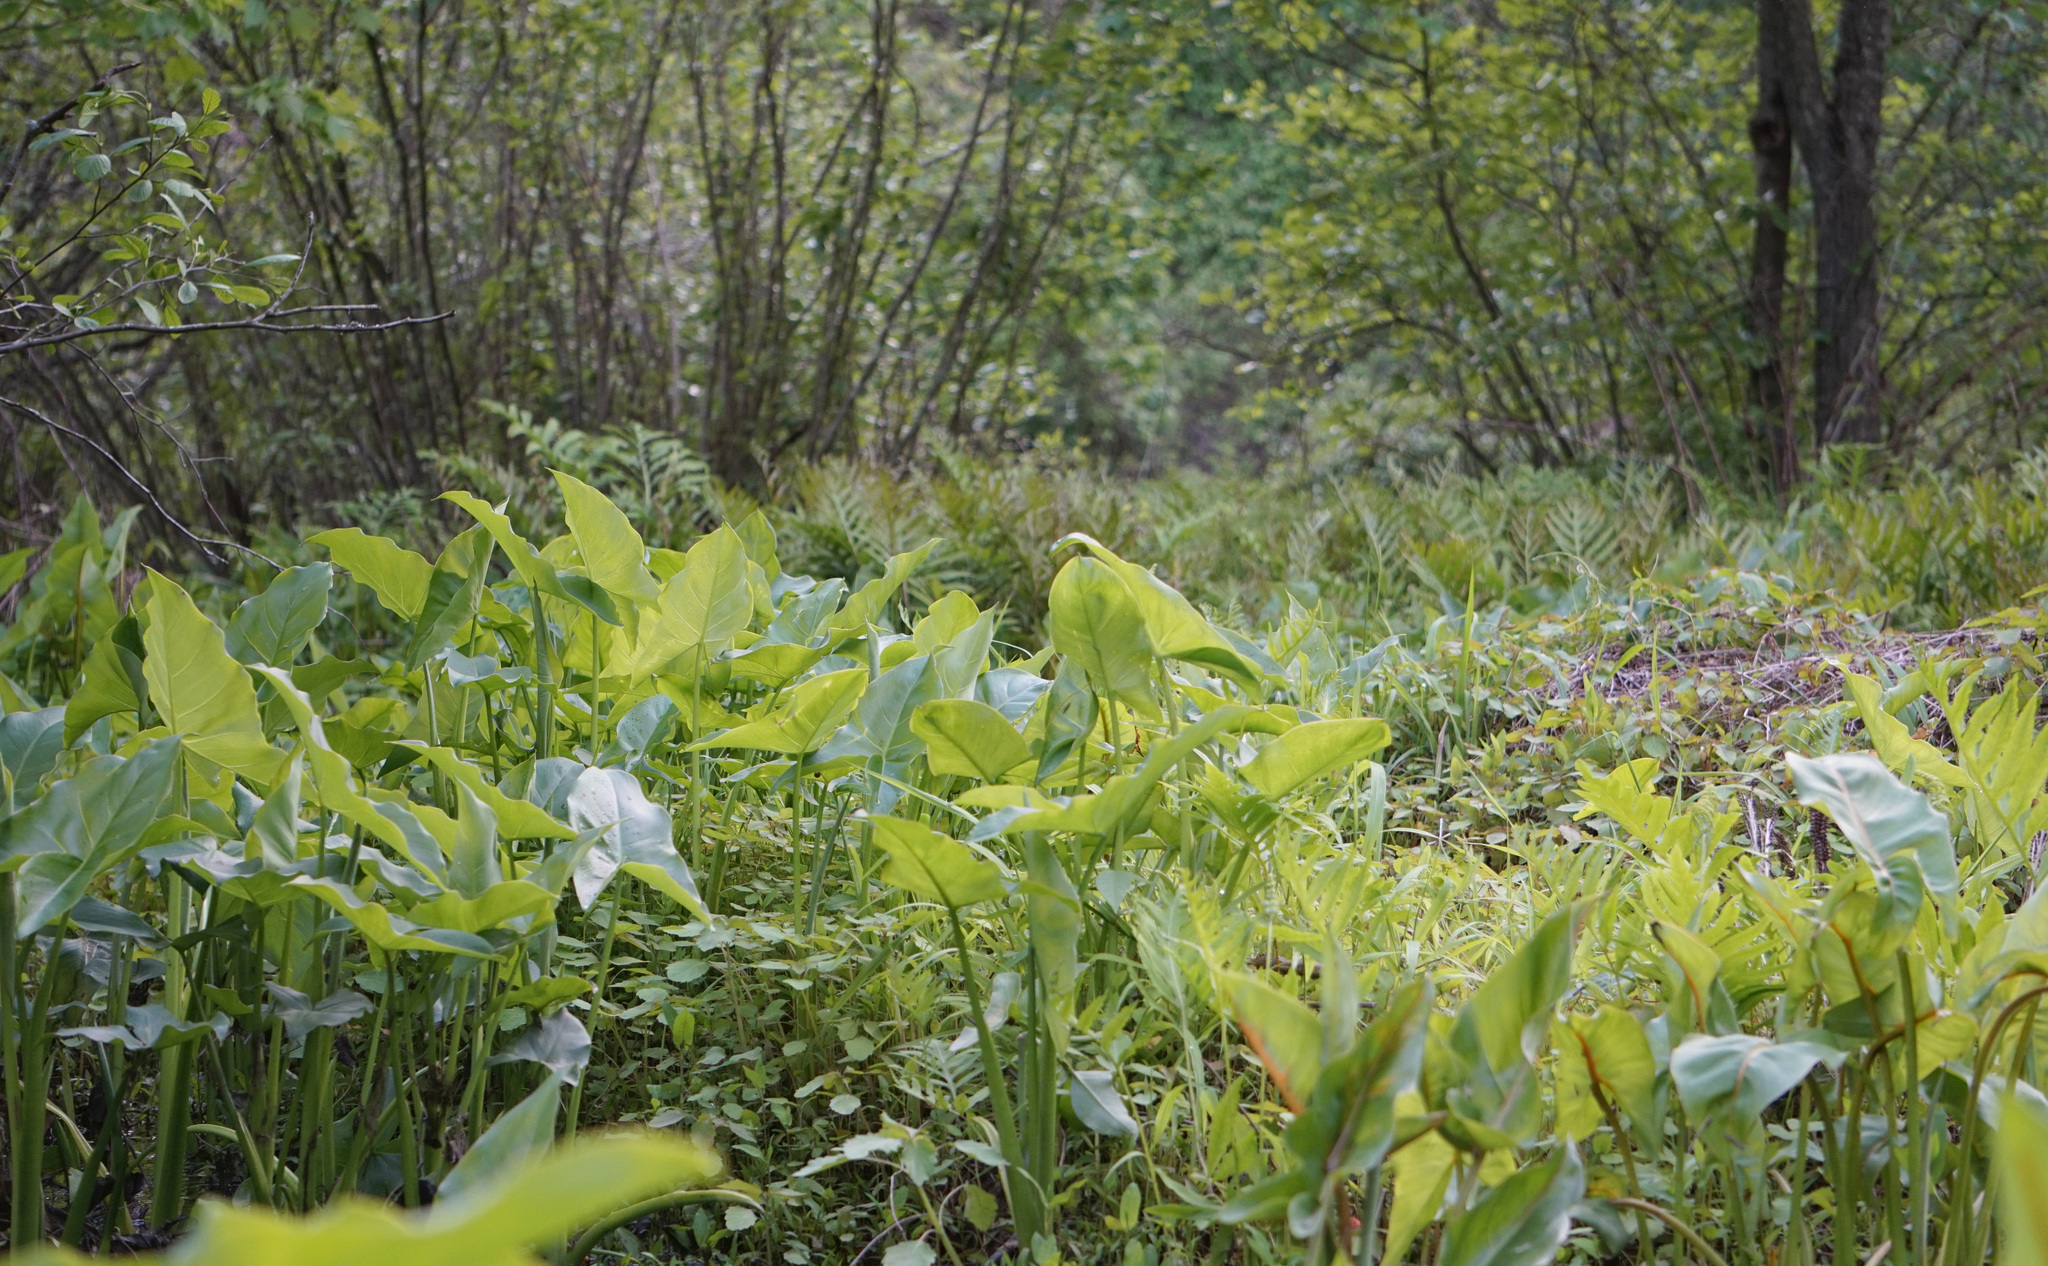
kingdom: Plantae
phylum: Tracheophyta
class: Liliopsida
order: Alismatales
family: Araceae
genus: Peltandra
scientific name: Peltandra virginica
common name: Arrow arum
